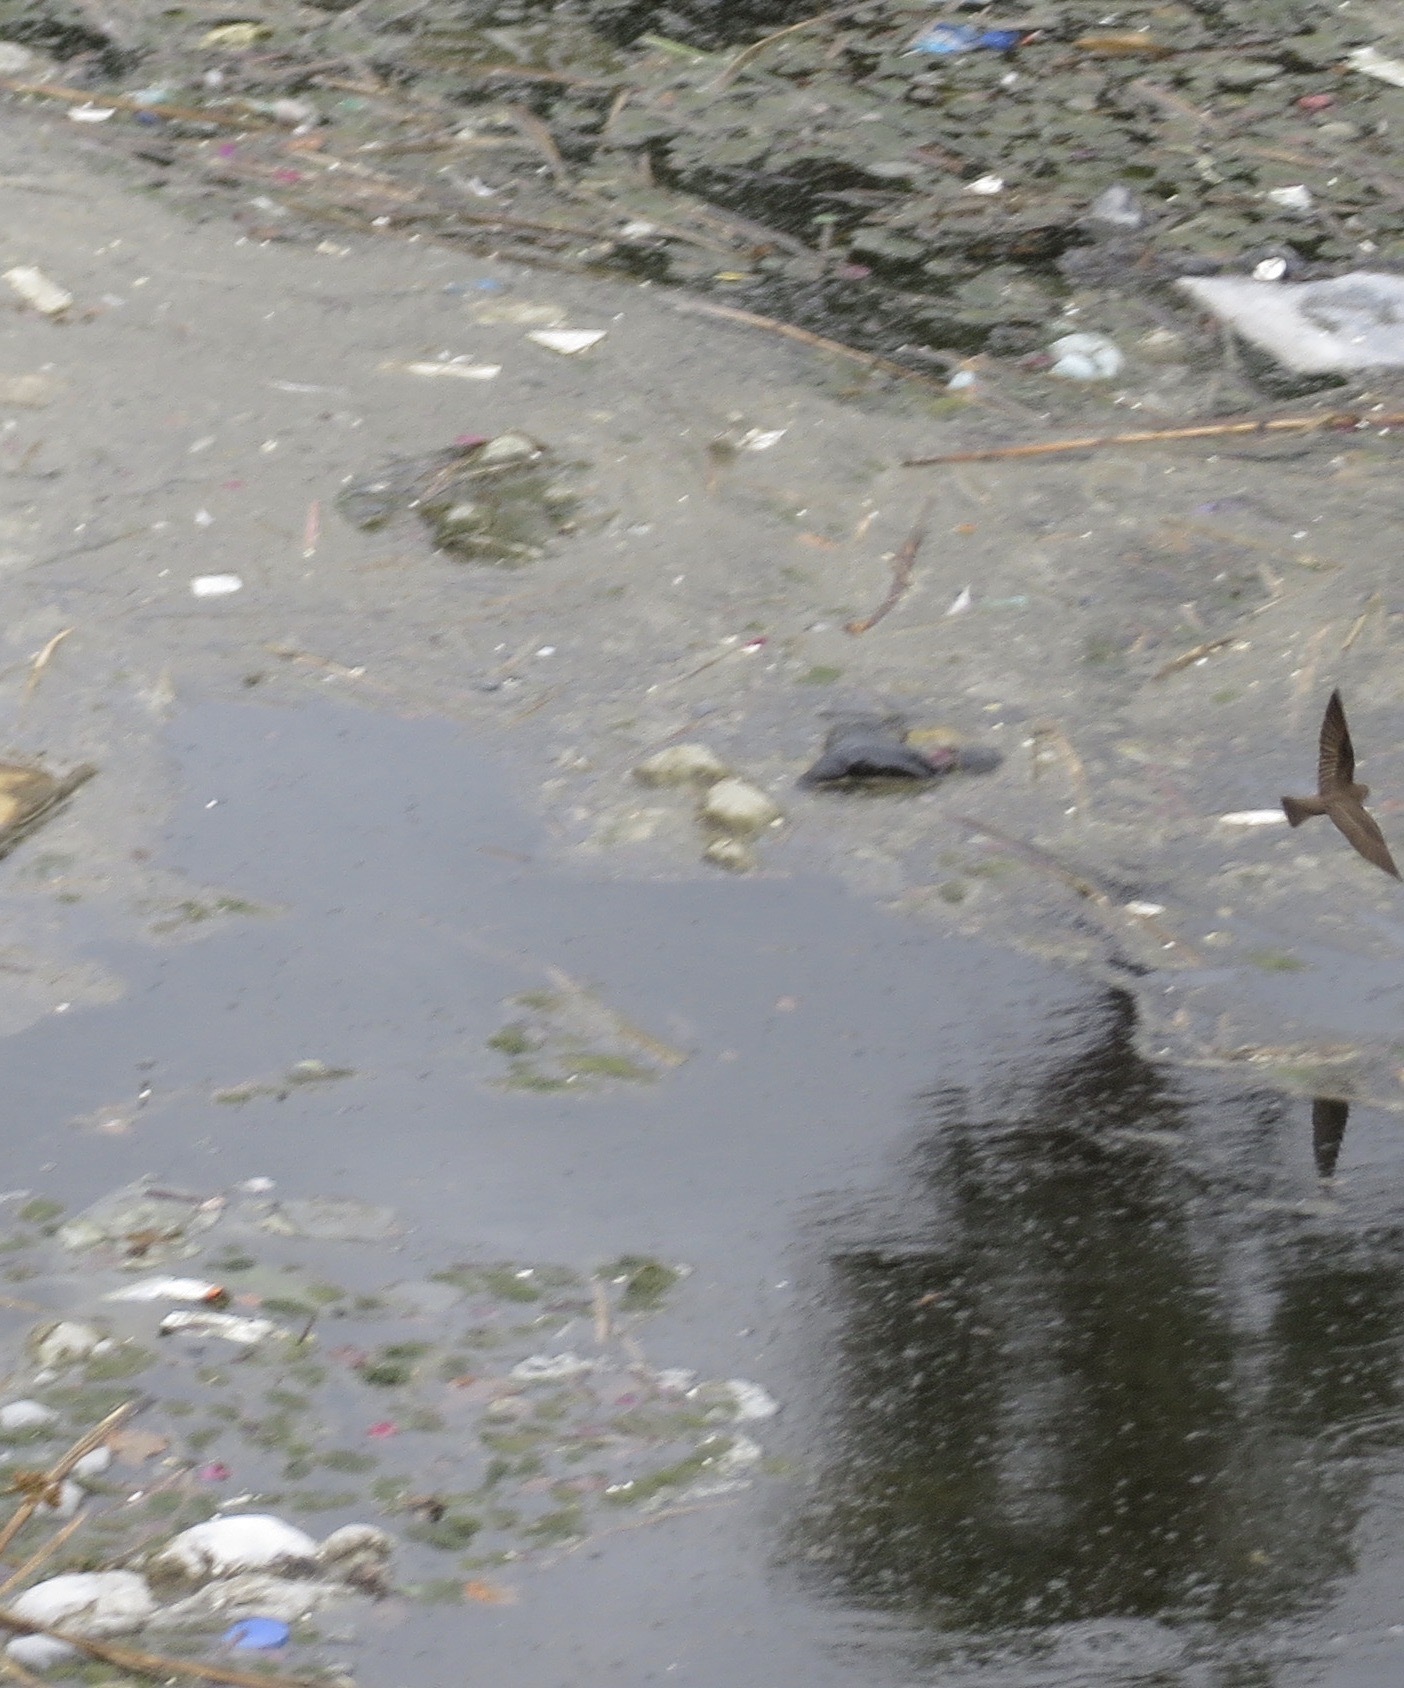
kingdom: Animalia
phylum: Chordata
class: Aves
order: Passeriformes
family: Hirundinidae
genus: Stelgidopteryx
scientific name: Stelgidopteryx serripennis
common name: Northern rough-winged swallow
